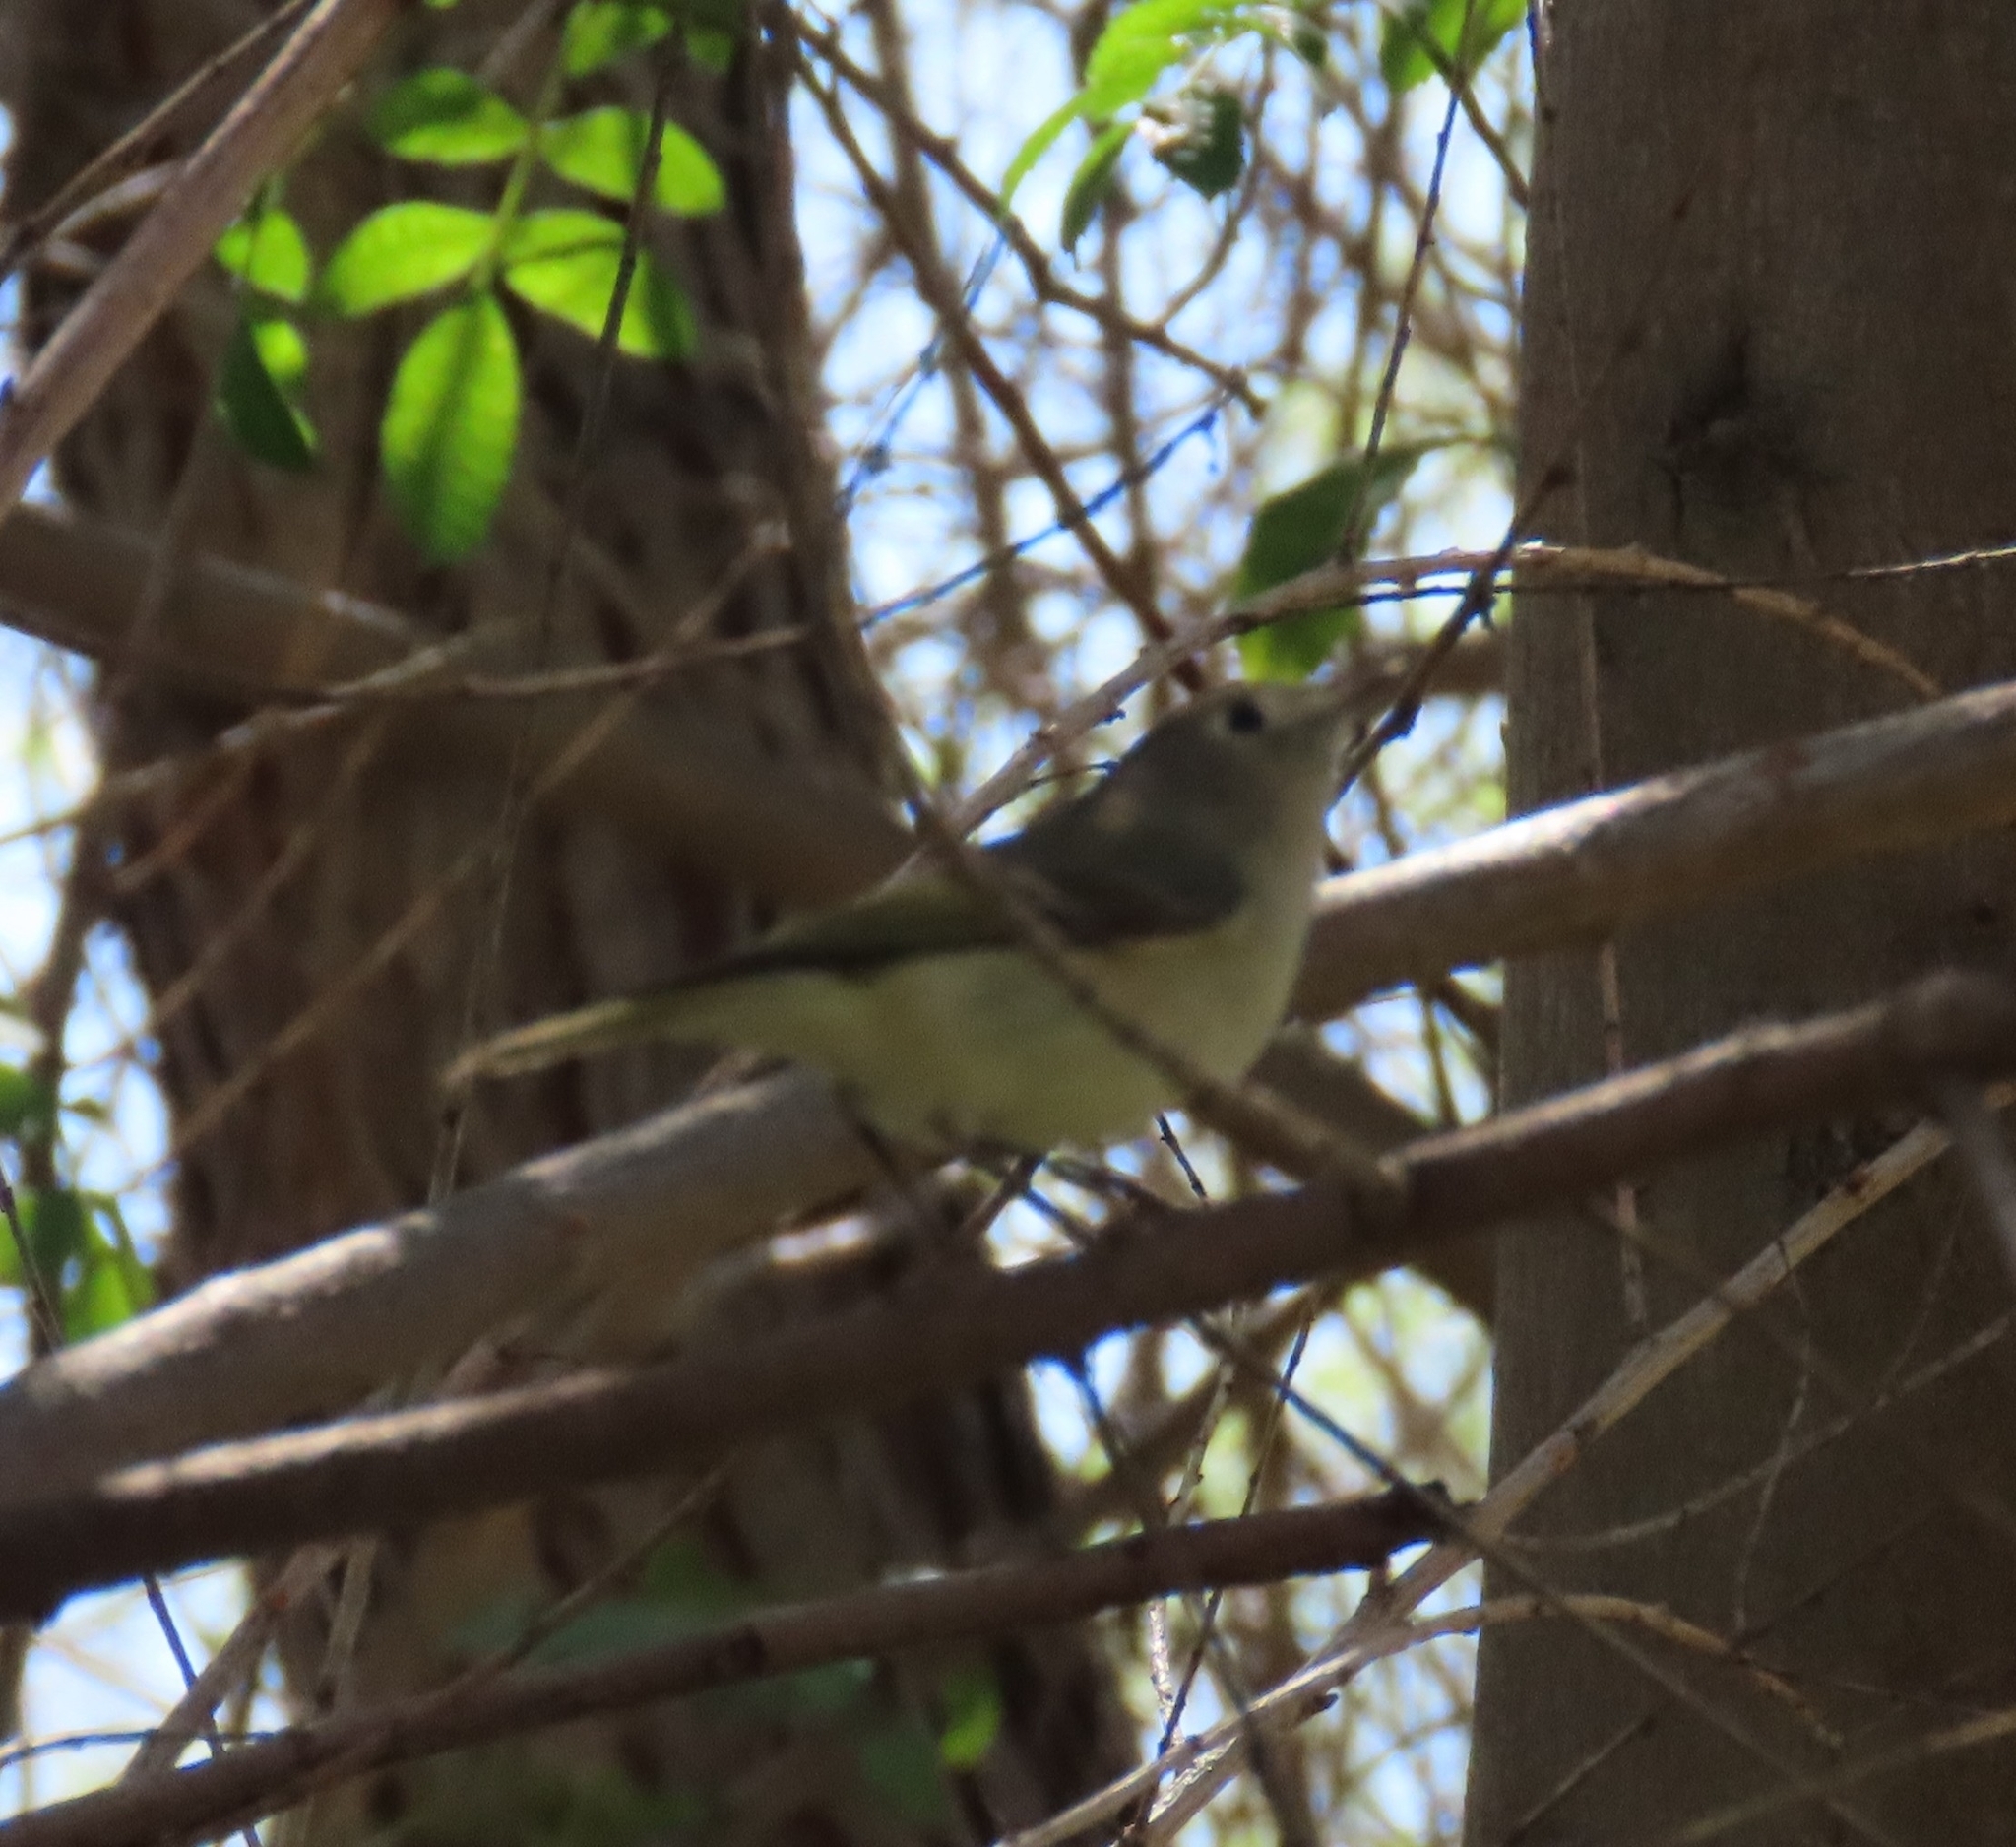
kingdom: Animalia
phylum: Chordata
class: Aves
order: Passeriformes
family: Regulidae
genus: Regulus
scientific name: Regulus calendula
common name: Ruby-crowned kinglet
